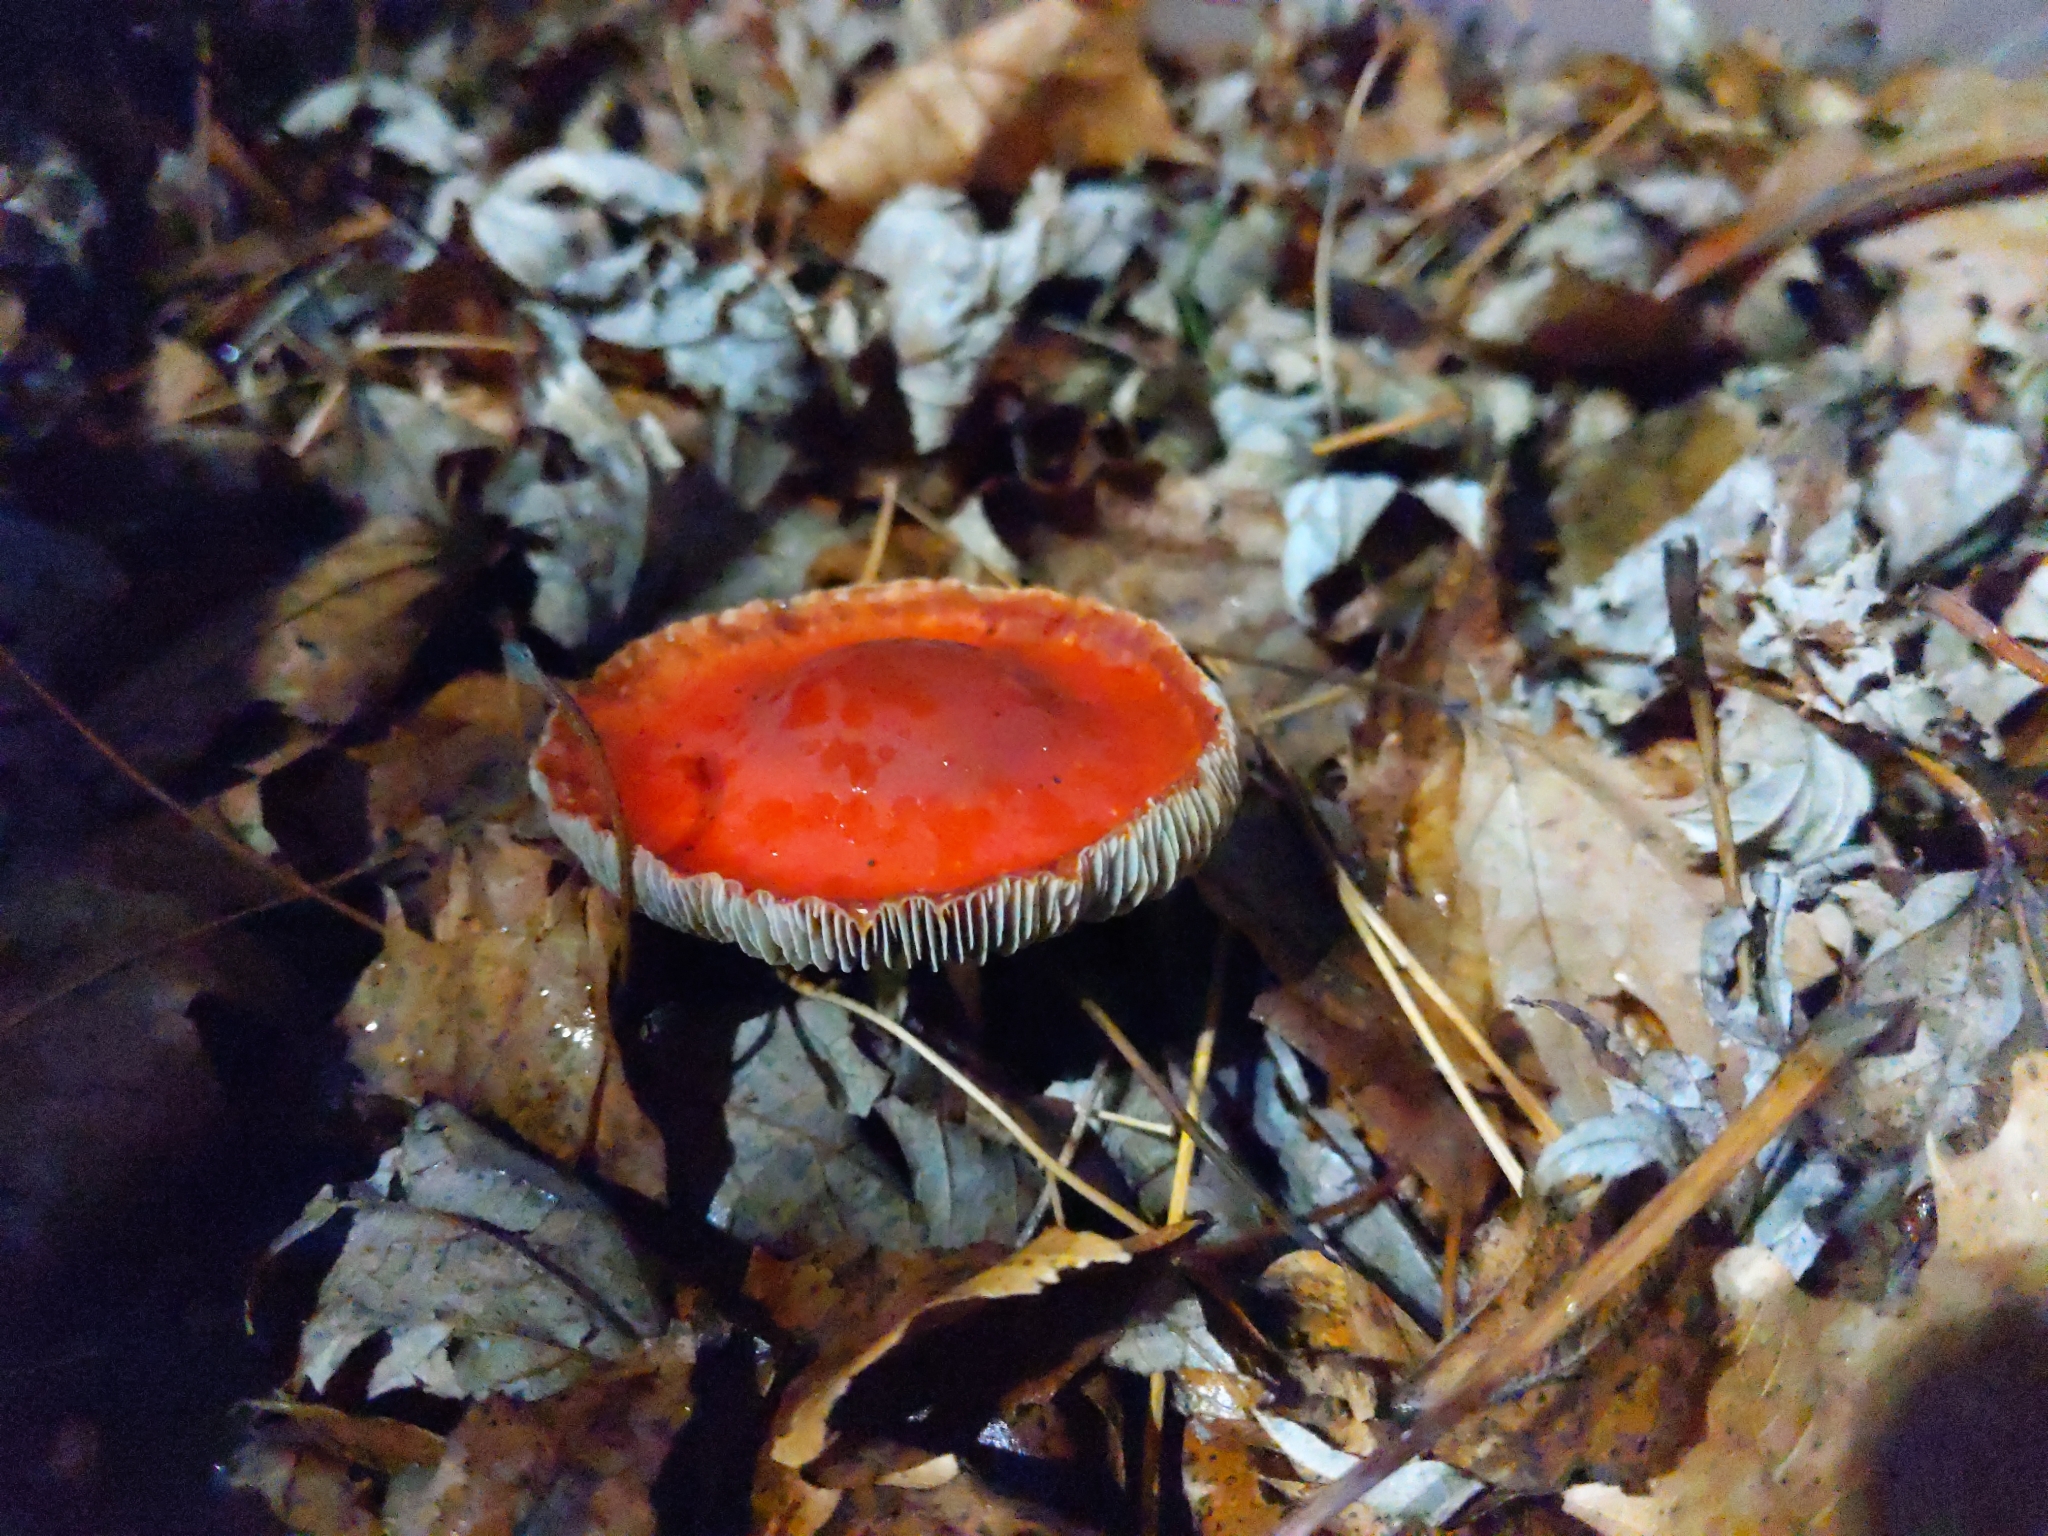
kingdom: Fungi
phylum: Basidiomycota
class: Agaricomycetes
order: Agaricales
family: Strophariaceae
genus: Leratiomyces
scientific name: Leratiomyces ceres
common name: Redlead roundhead
